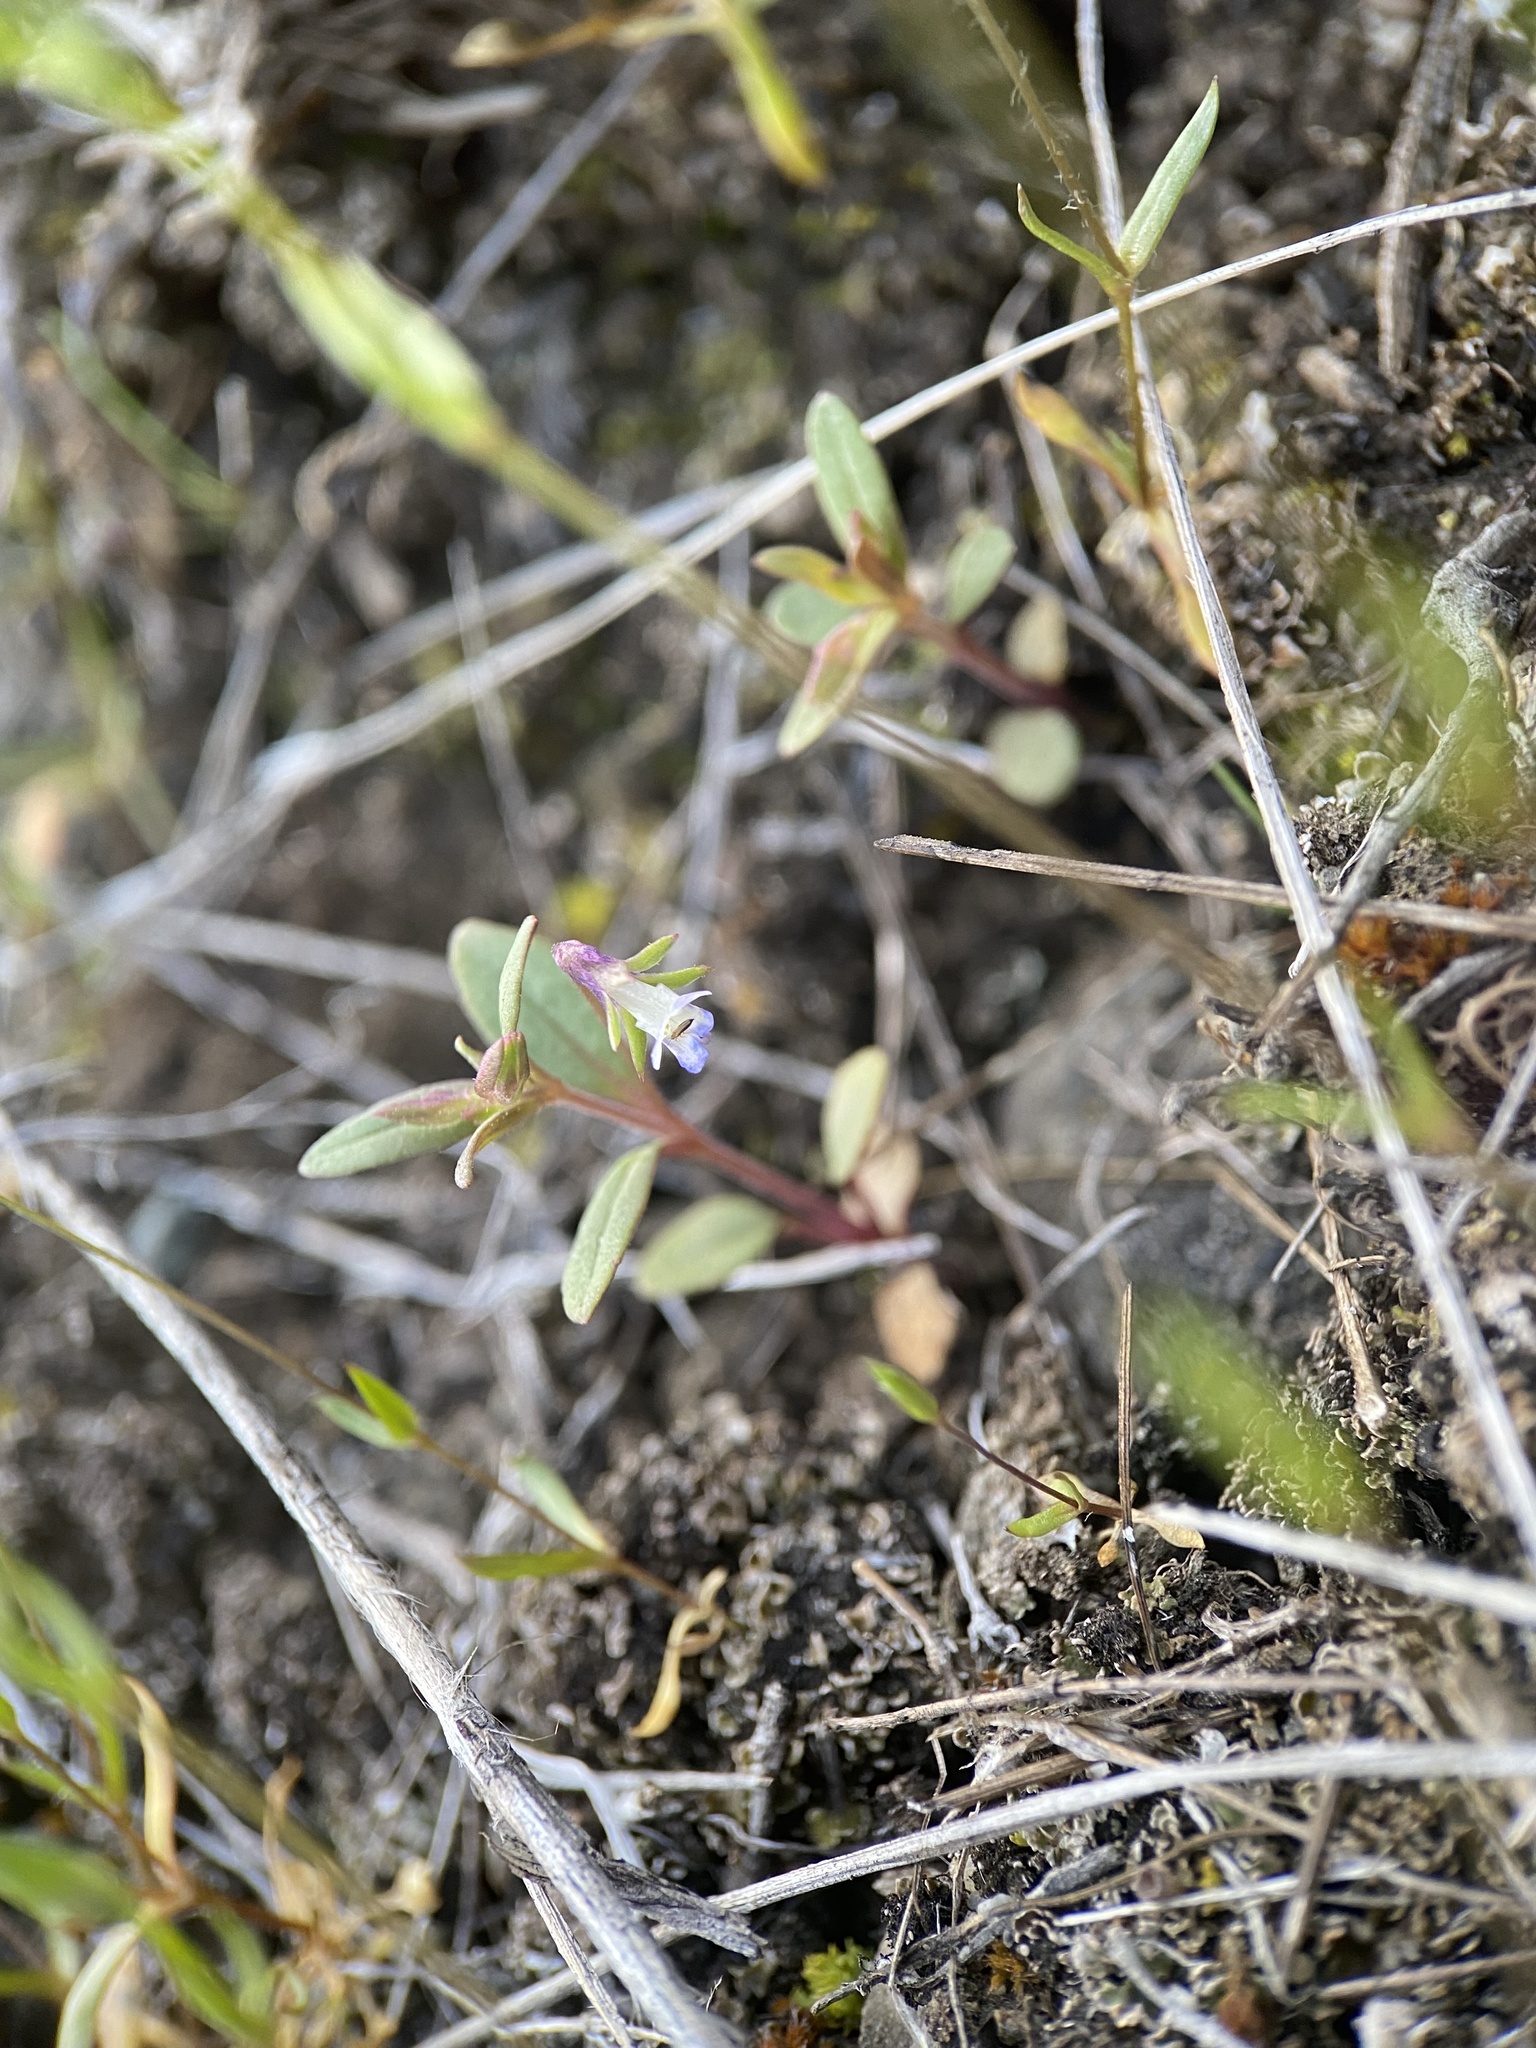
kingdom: Plantae
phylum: Tracheophyta
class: Magnoliopsida
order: Lamiales
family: Plantaginaceae
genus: Collinsia
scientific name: Collinsia parviflora
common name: Blue-lips
